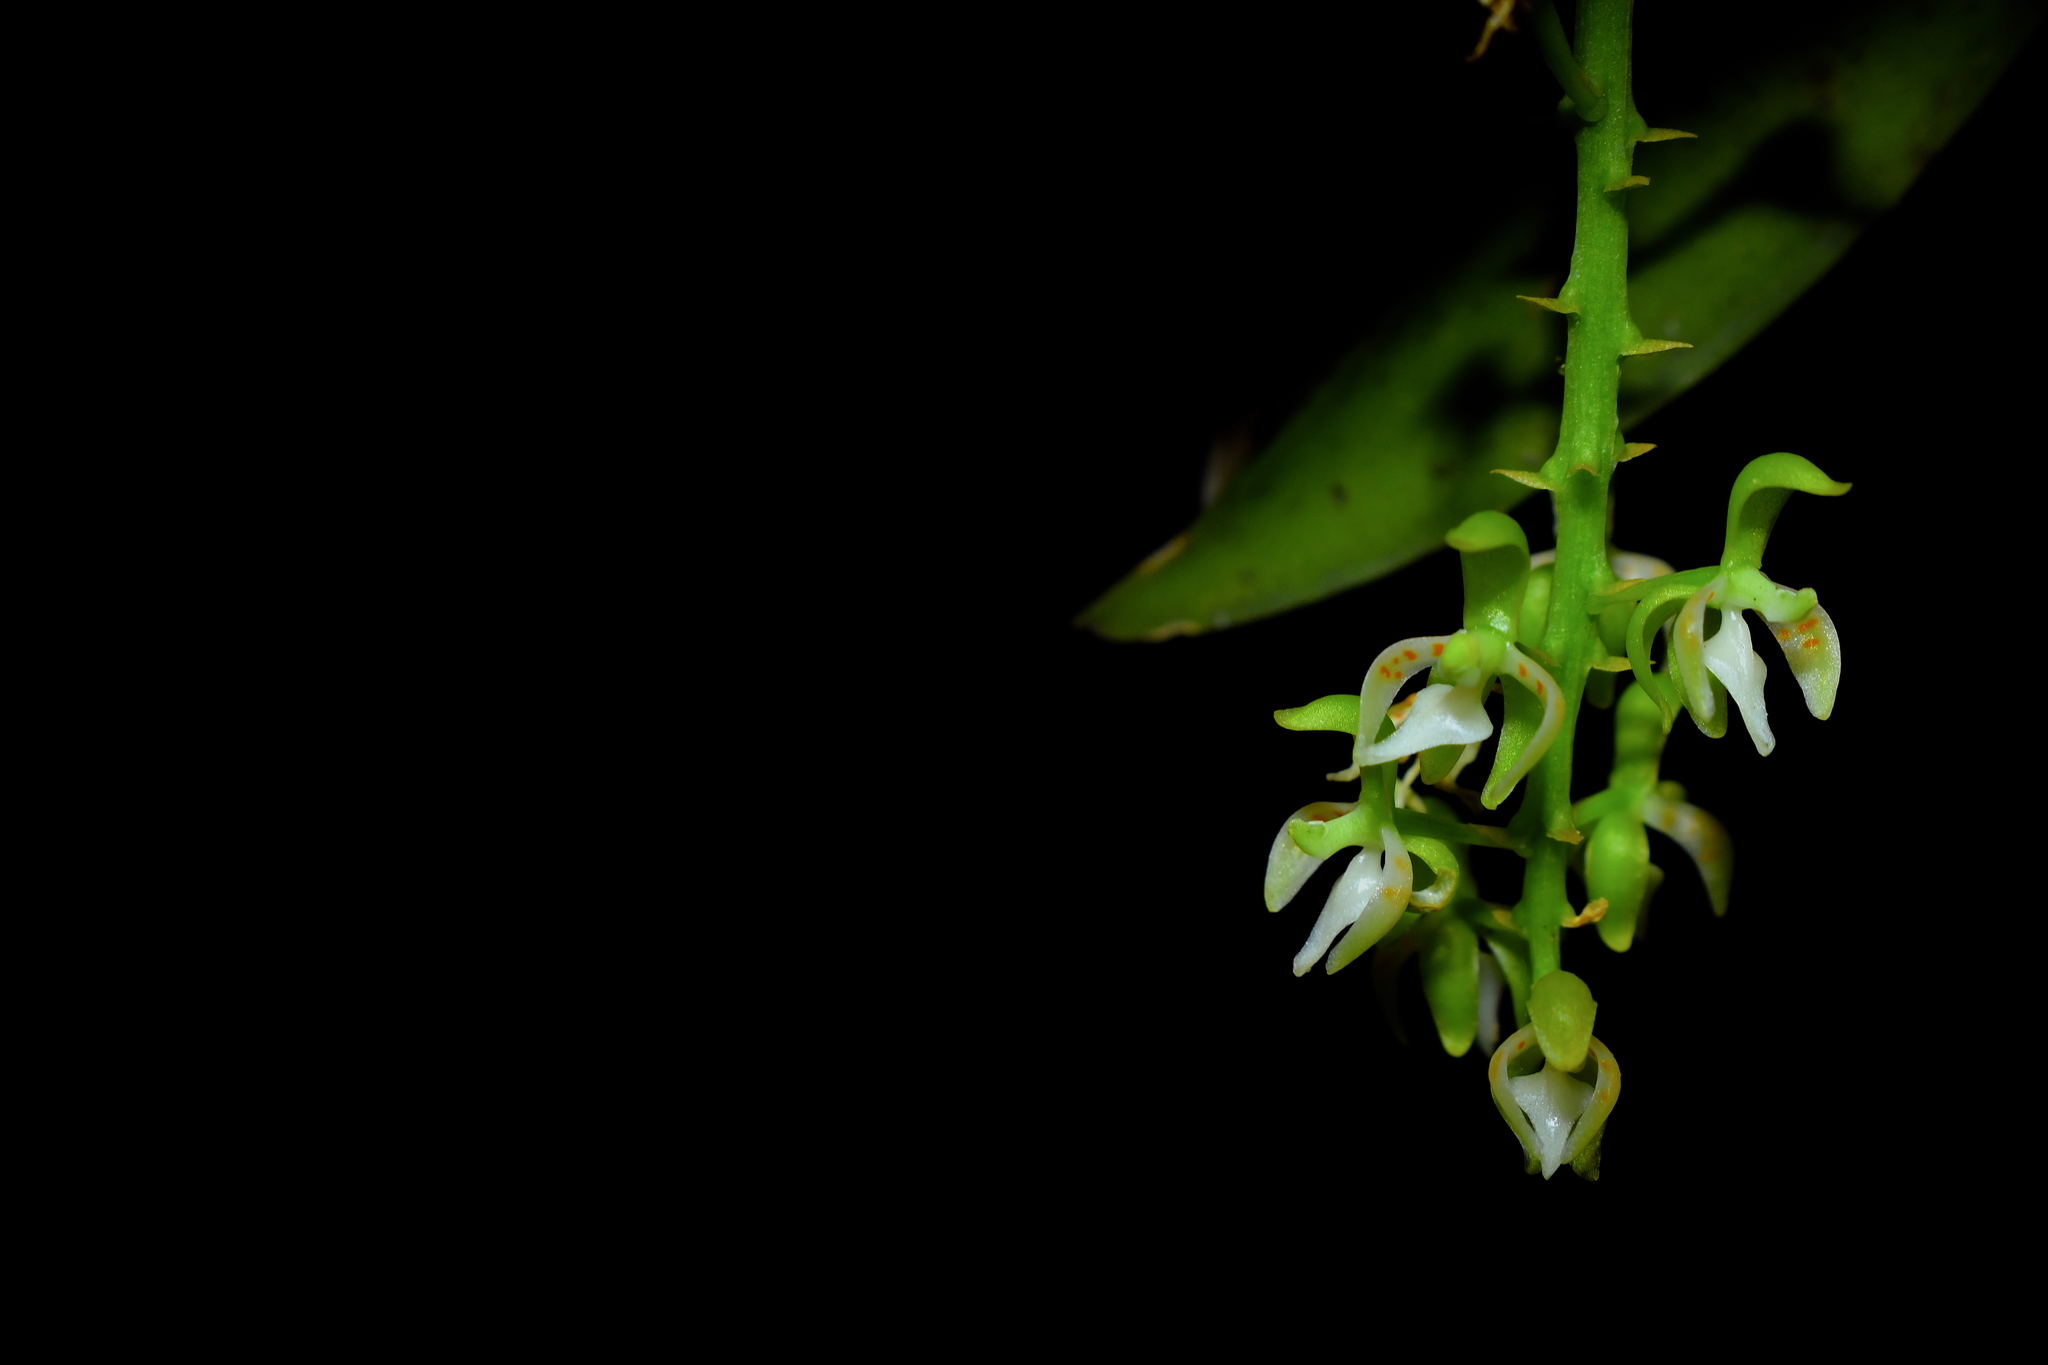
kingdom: Plantae
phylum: Tracheophyta
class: Liliopsida
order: Asparagales
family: Orchidaceae
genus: Notylia
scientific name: Notylia barkeri
